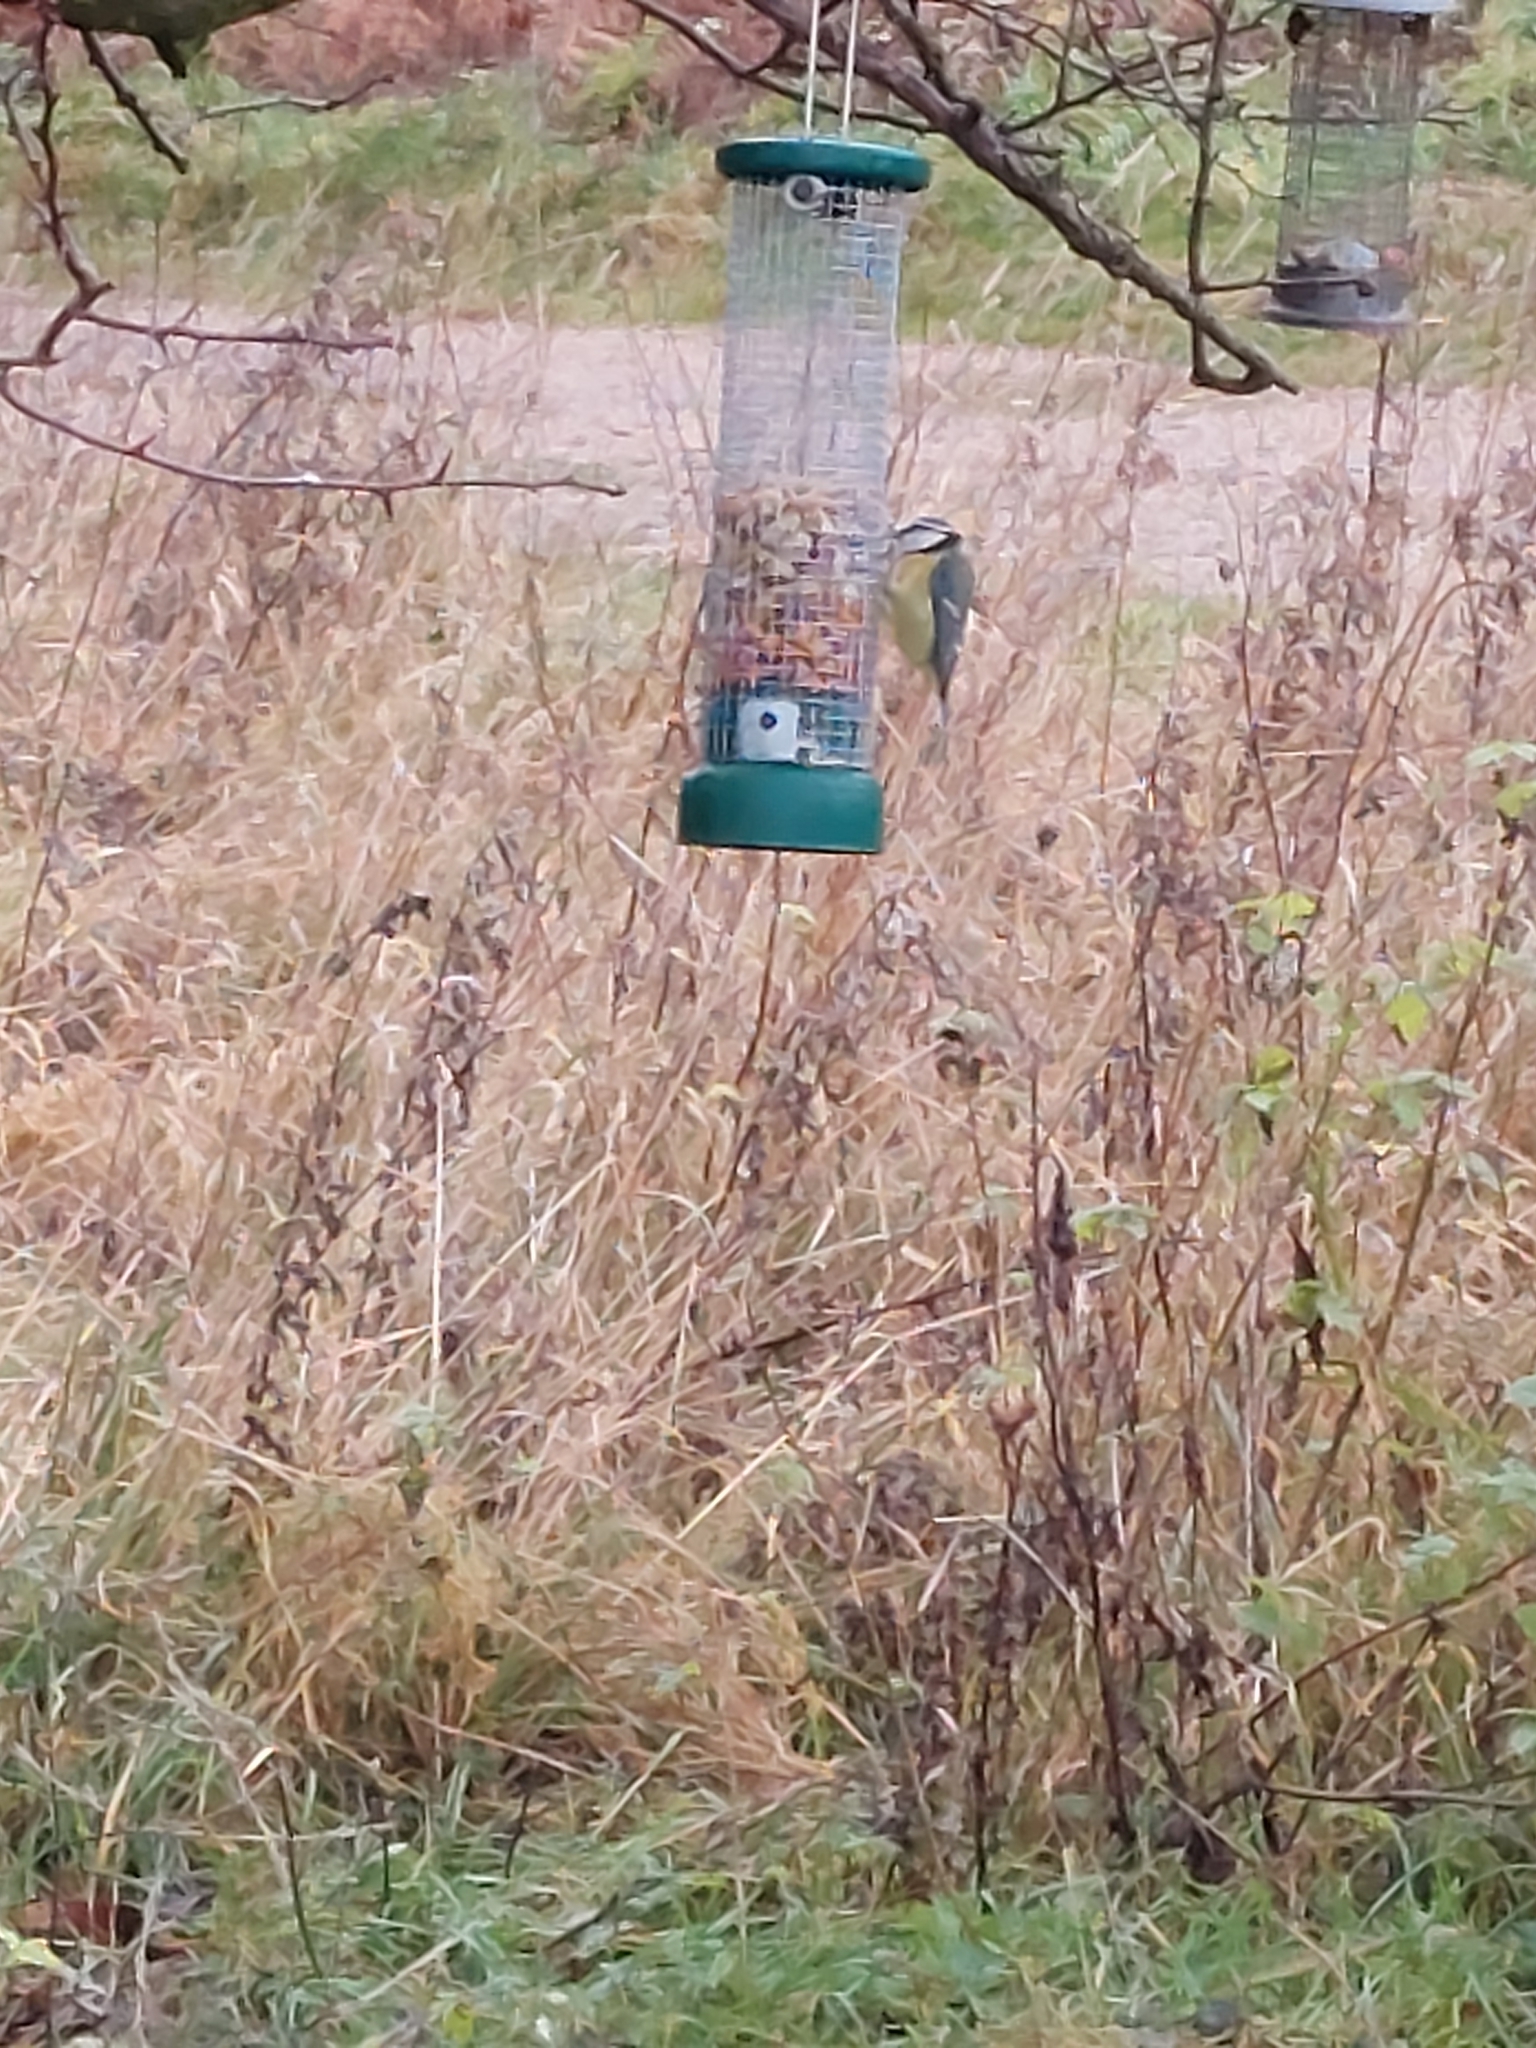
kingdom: Animalia
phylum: Chordata
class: Aves
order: Passeriformes
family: Paridae
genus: Cyanistes
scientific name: Cyanistes caeruleus
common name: Eurasian blue tit
